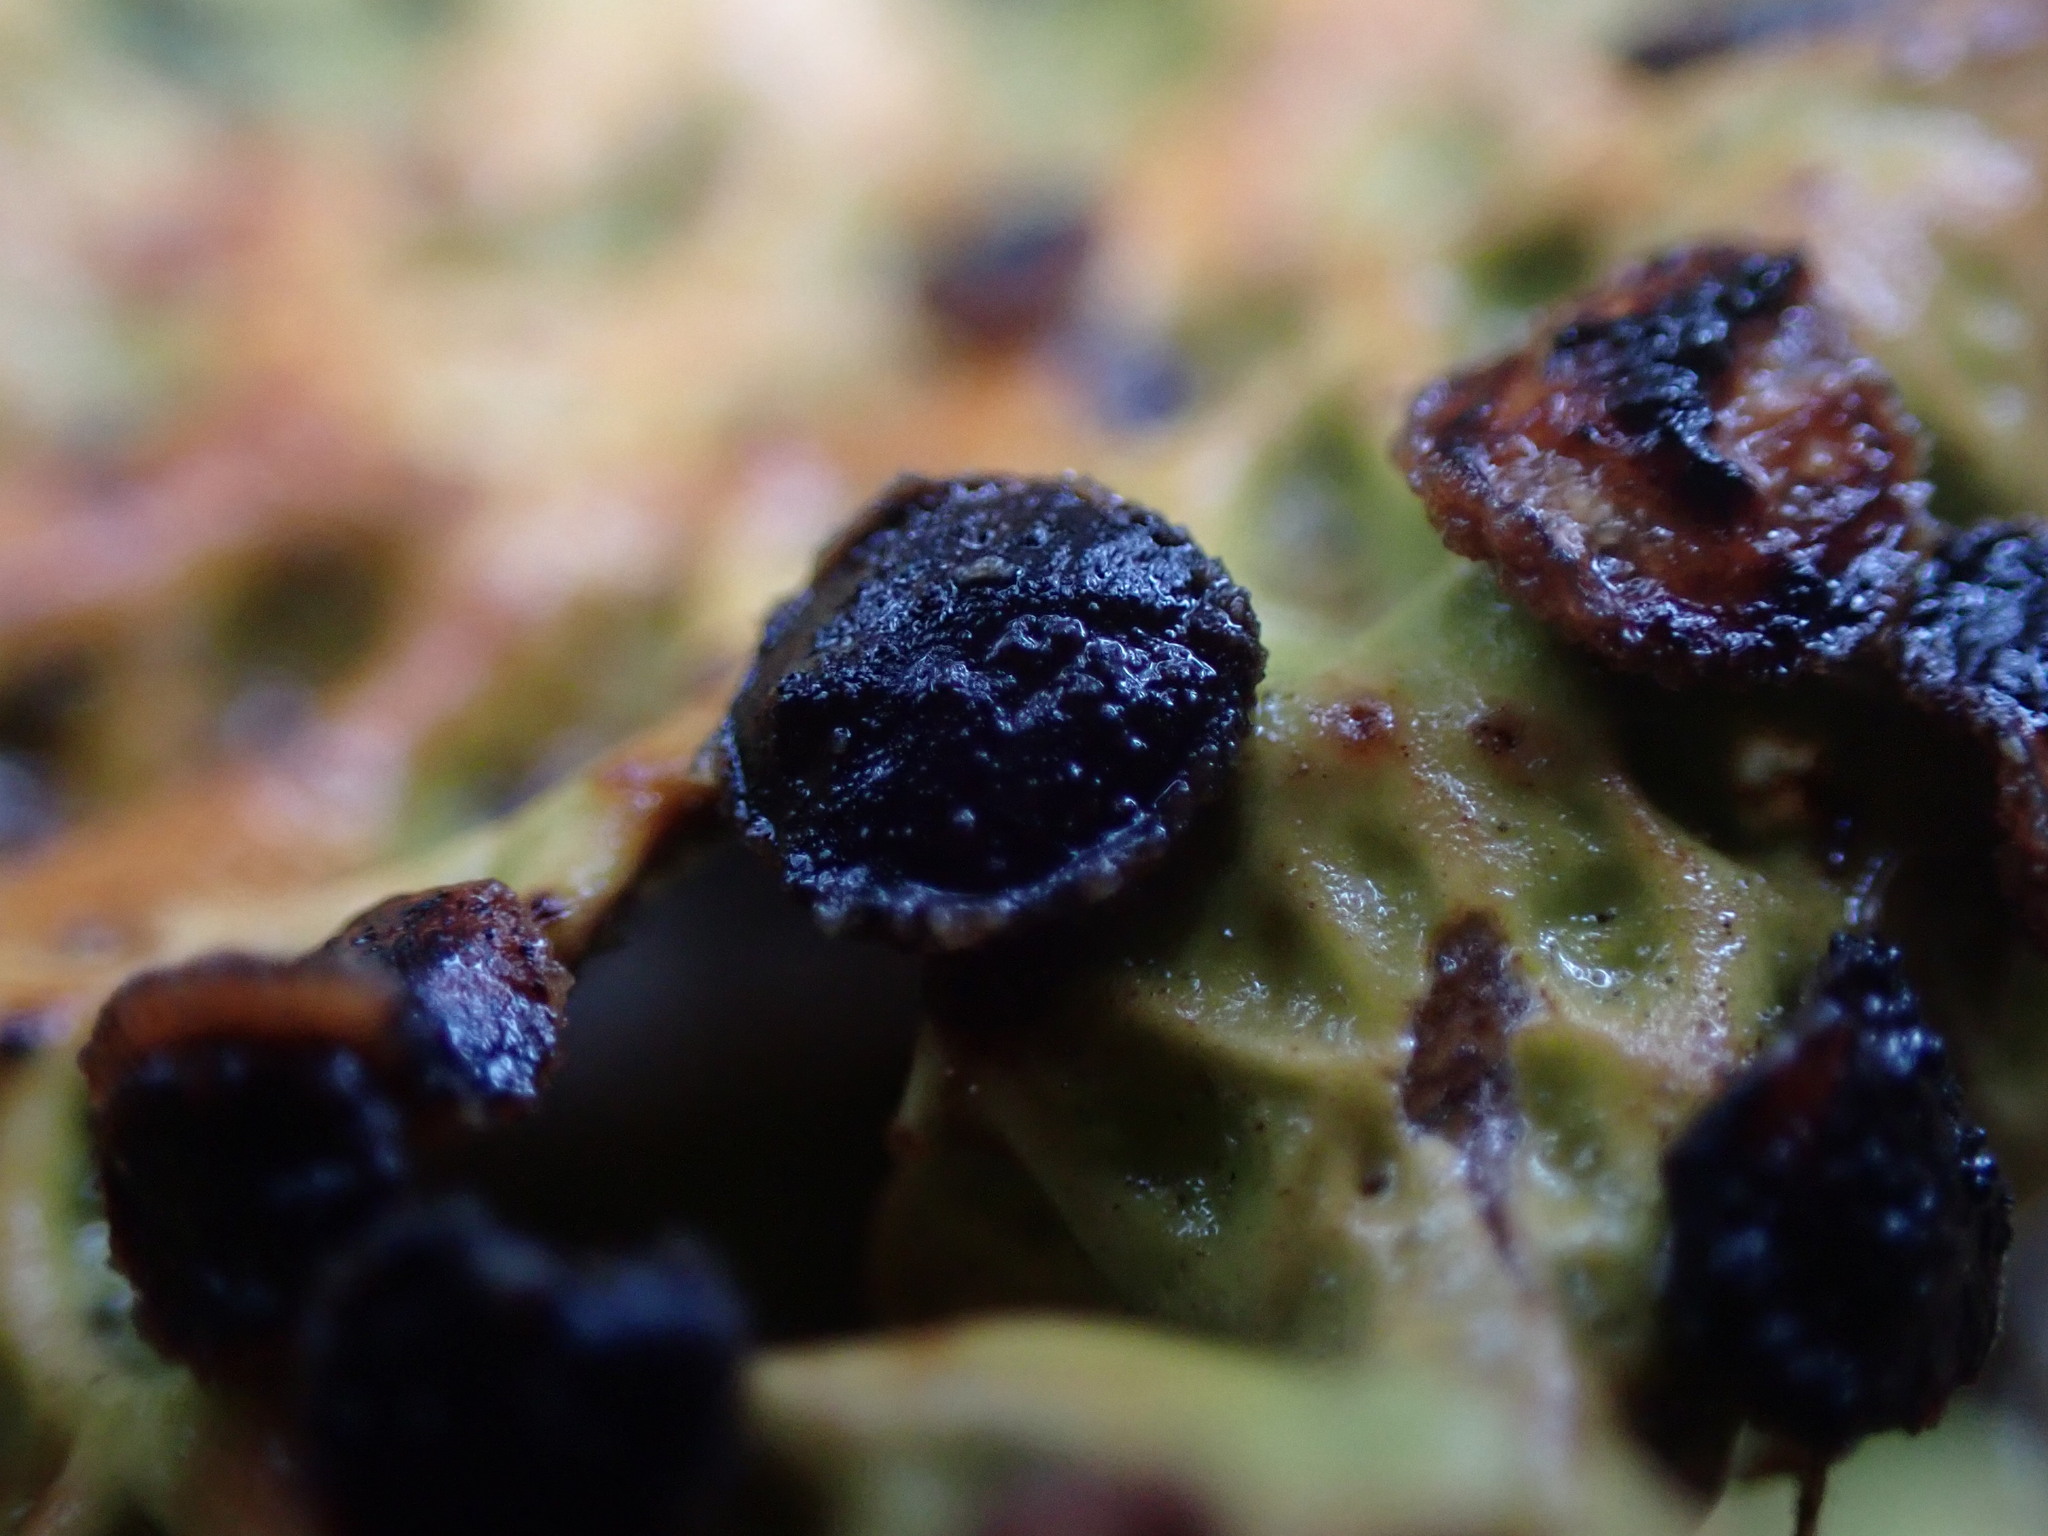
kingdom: Fungi
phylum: Ascomycota
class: Arthoniomycetes
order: Arthoniales
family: Lecanographaceae
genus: Plectocarpon
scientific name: Plectocarpon lichenum
